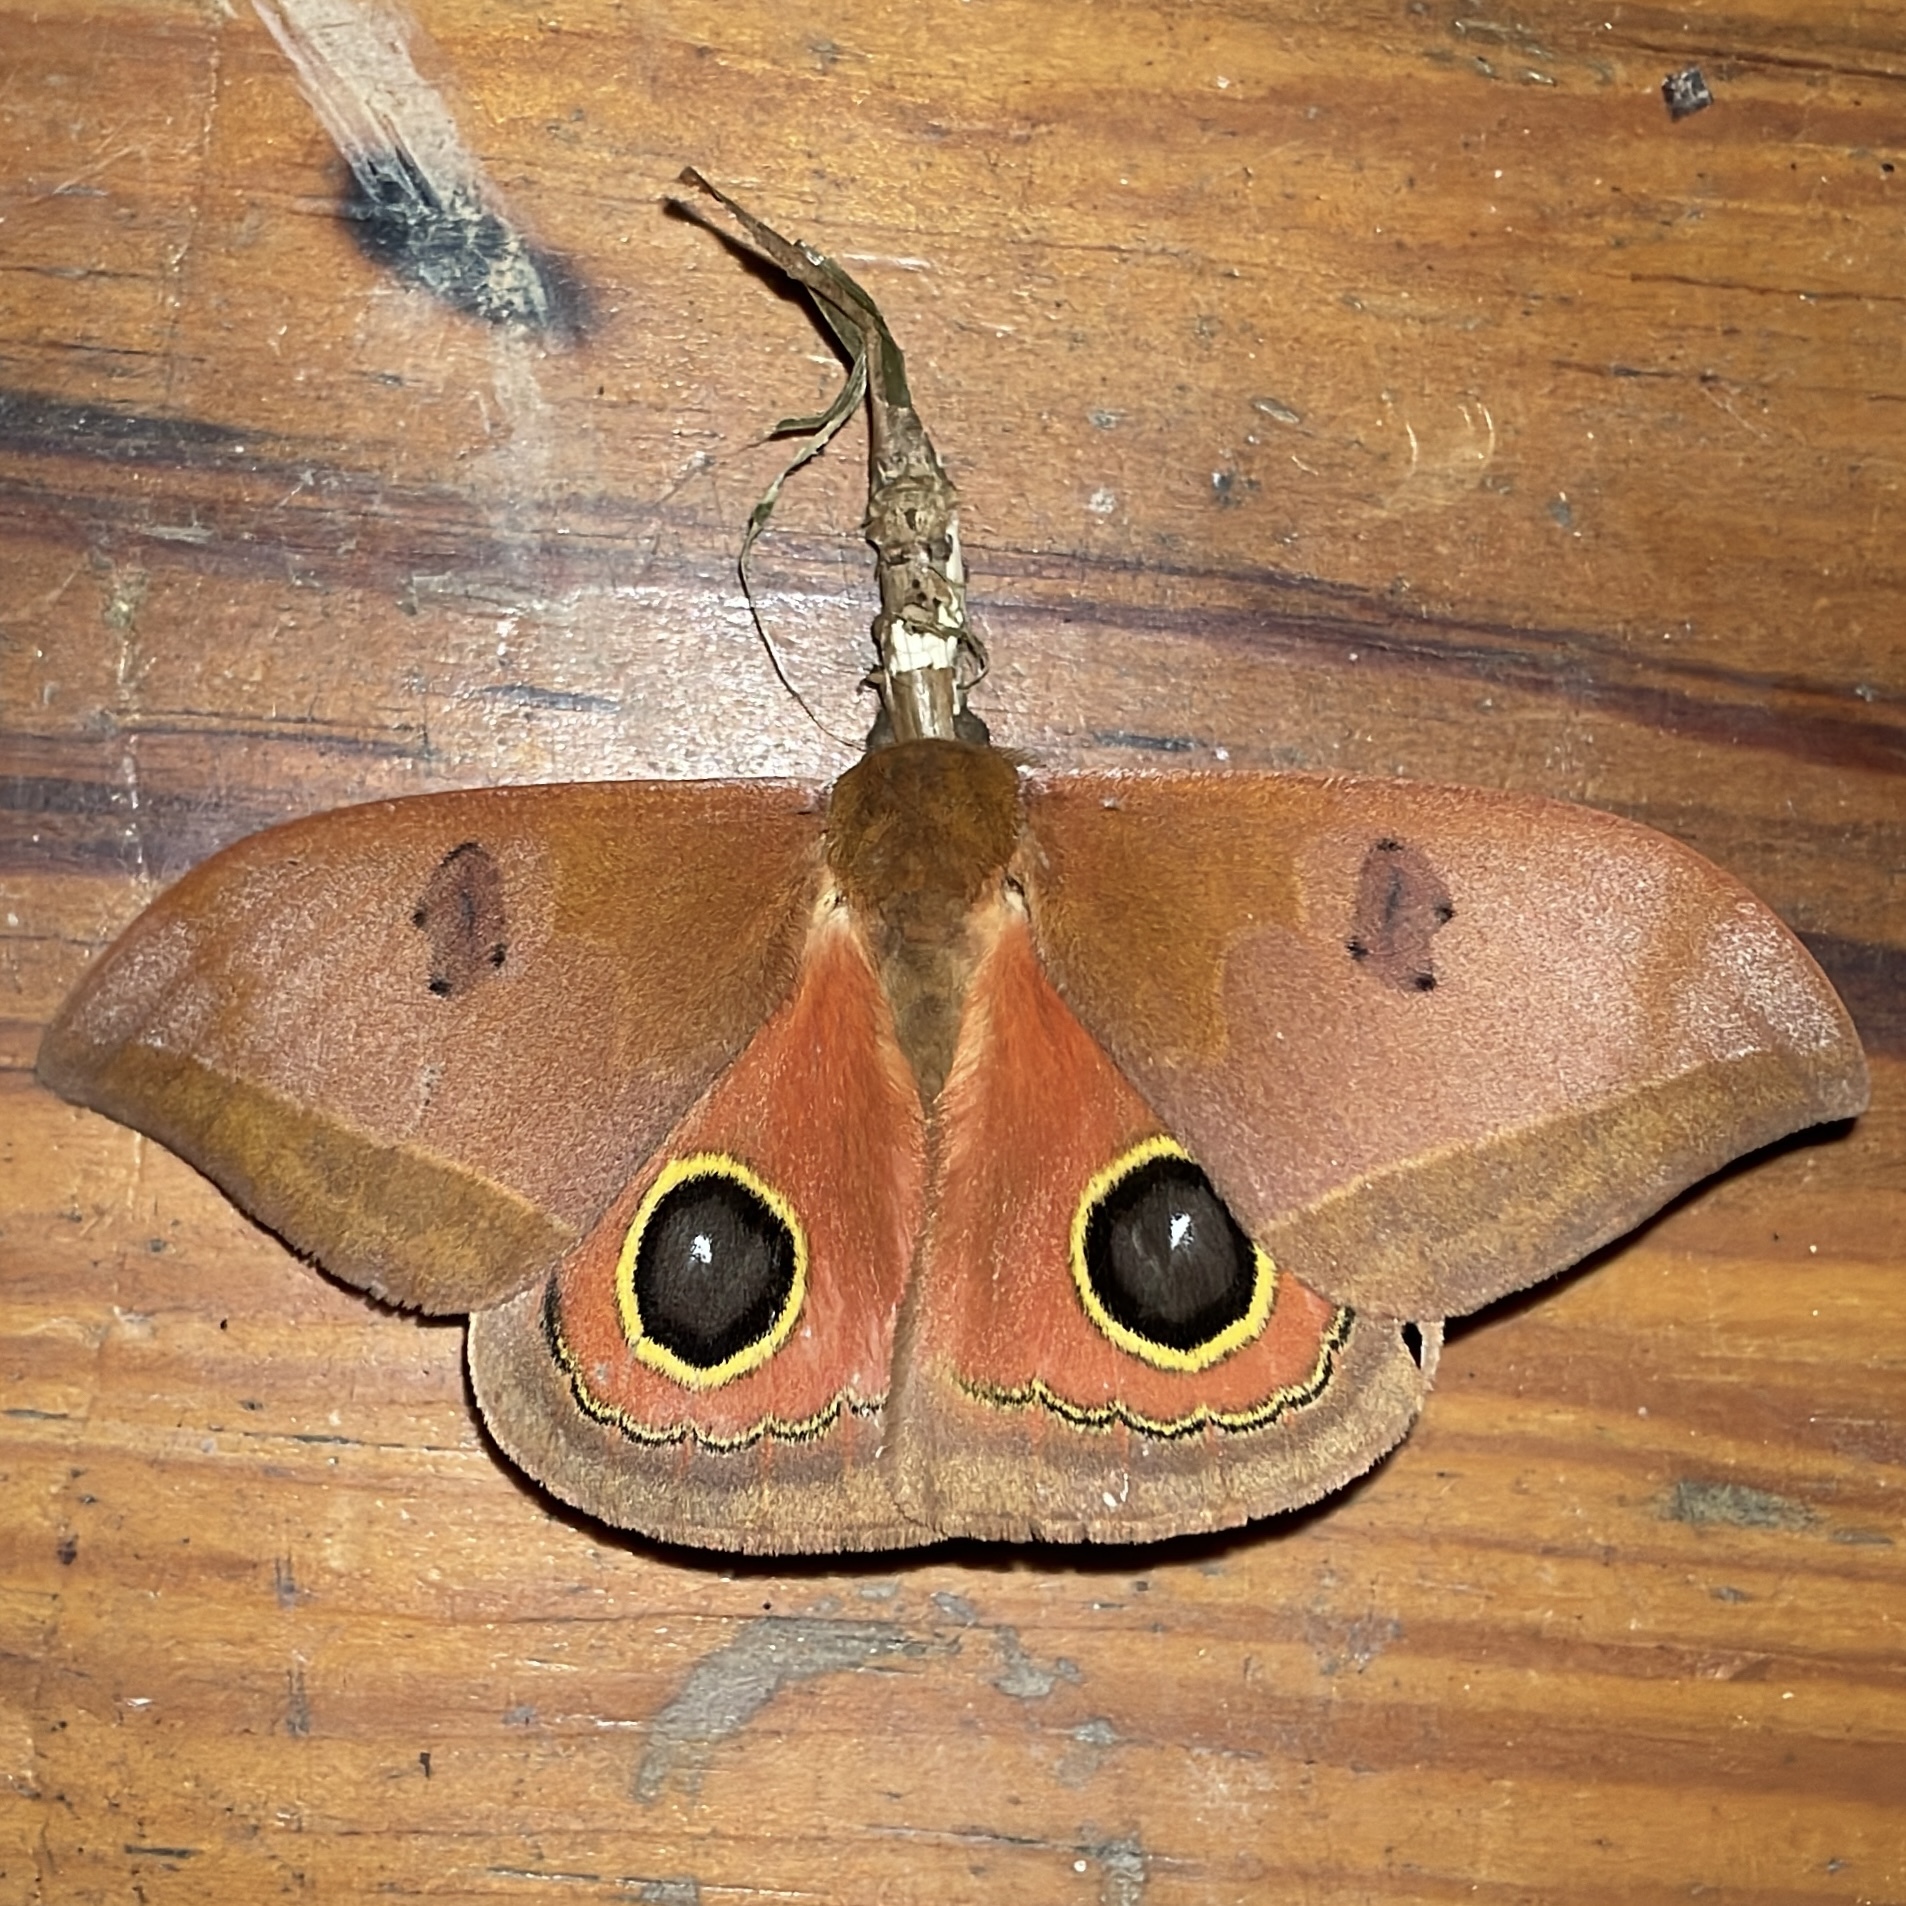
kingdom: Animalia
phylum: Arthropoda
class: Insecta
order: Lepidoptera
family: Saturniidae
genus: Automeris
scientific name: Automeris midea
